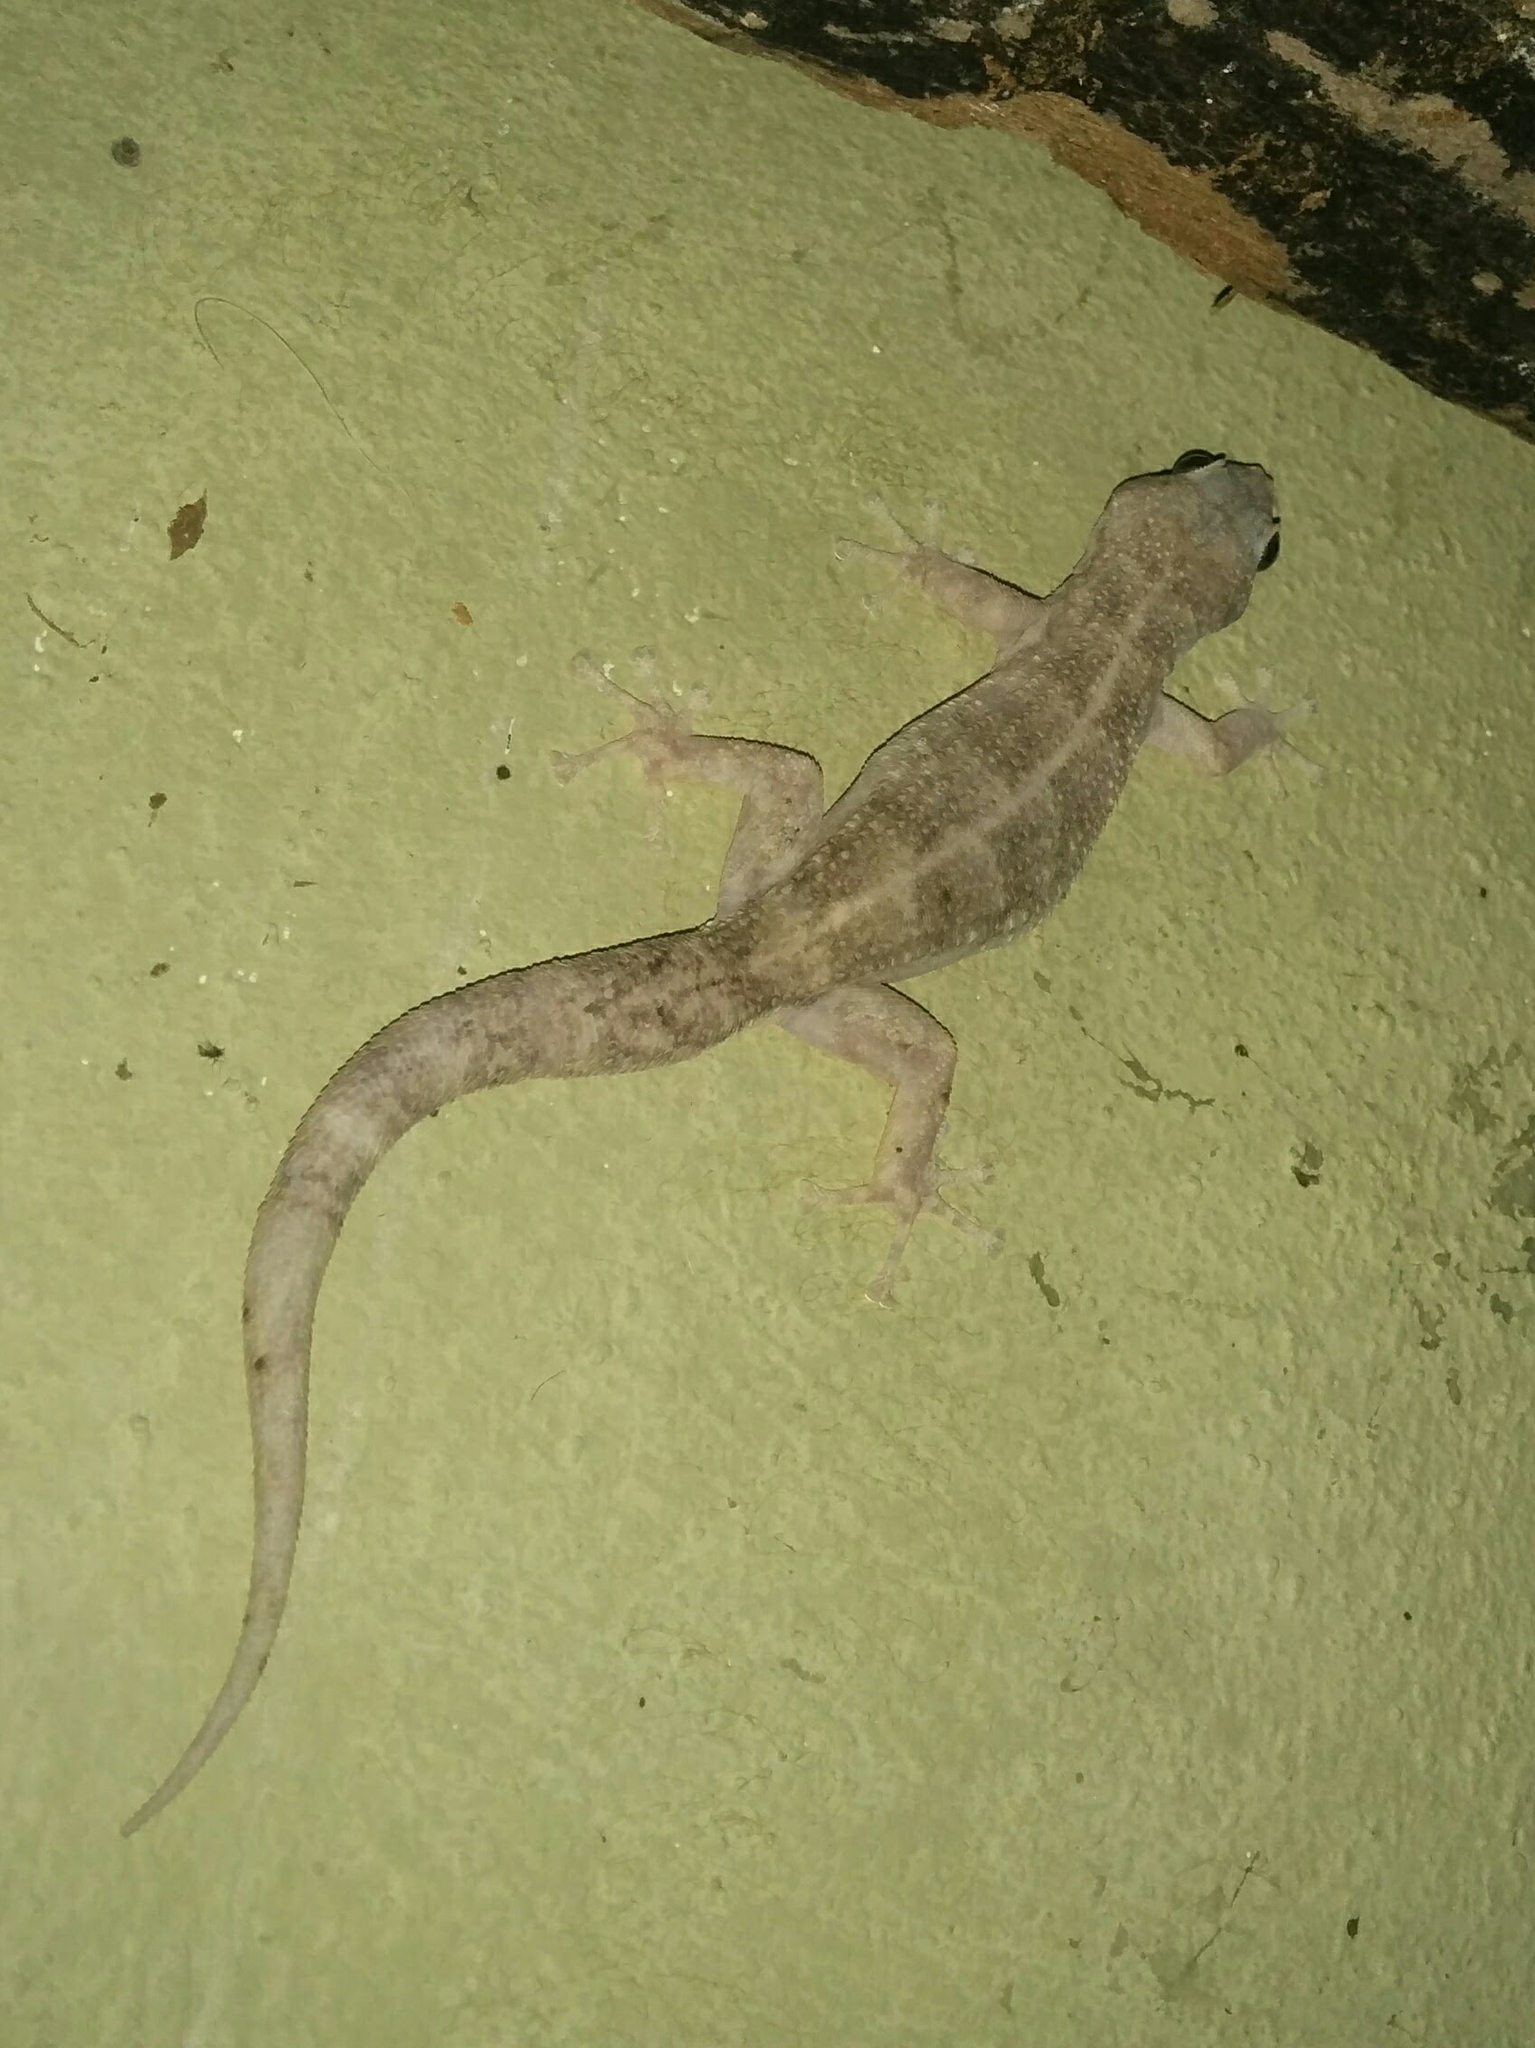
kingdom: Animalia
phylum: Chordata
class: Squamata
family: Phyllodactylidae
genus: Phyllodactylus
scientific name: Phyllodactylus reissii
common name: Peters' leaf-toed gecko
